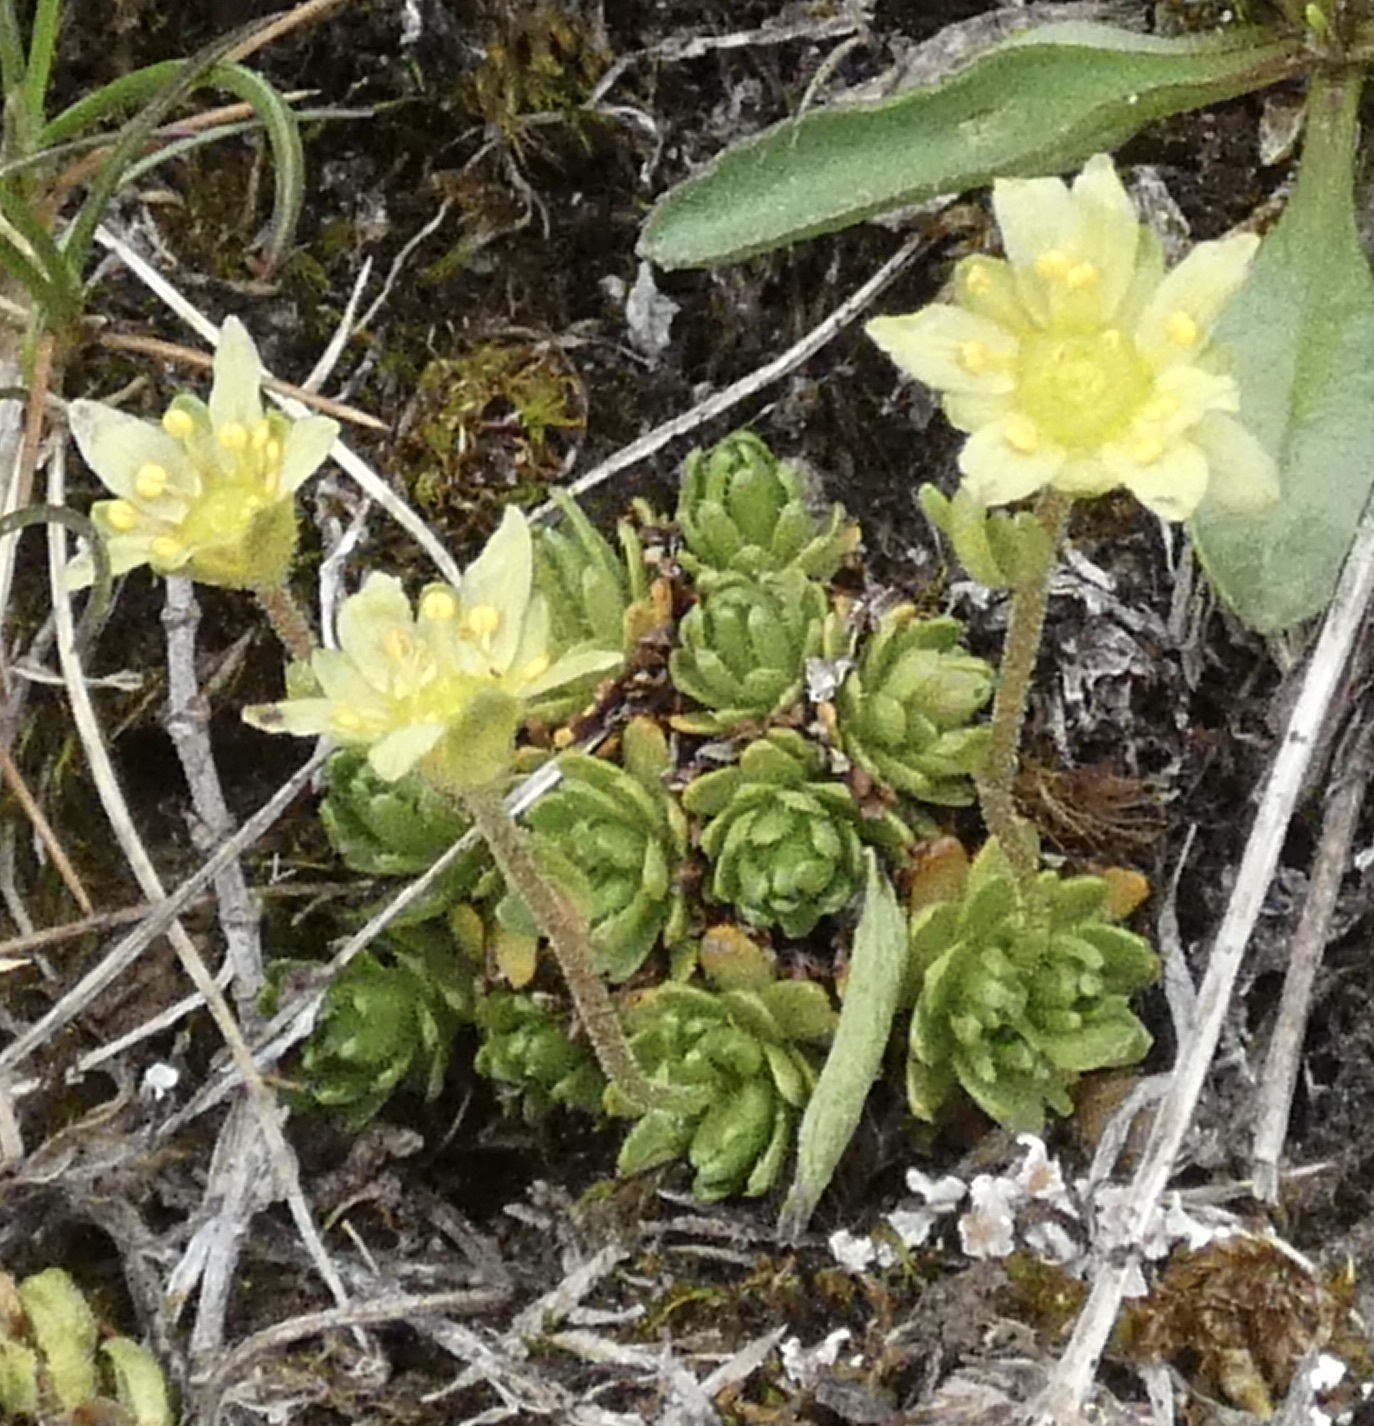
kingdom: Plantae
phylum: Tracheophyta
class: Magnoliopsida
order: Saxifragales
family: Saxifragaceae
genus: Saxifraga
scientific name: Saxifraga moschata
